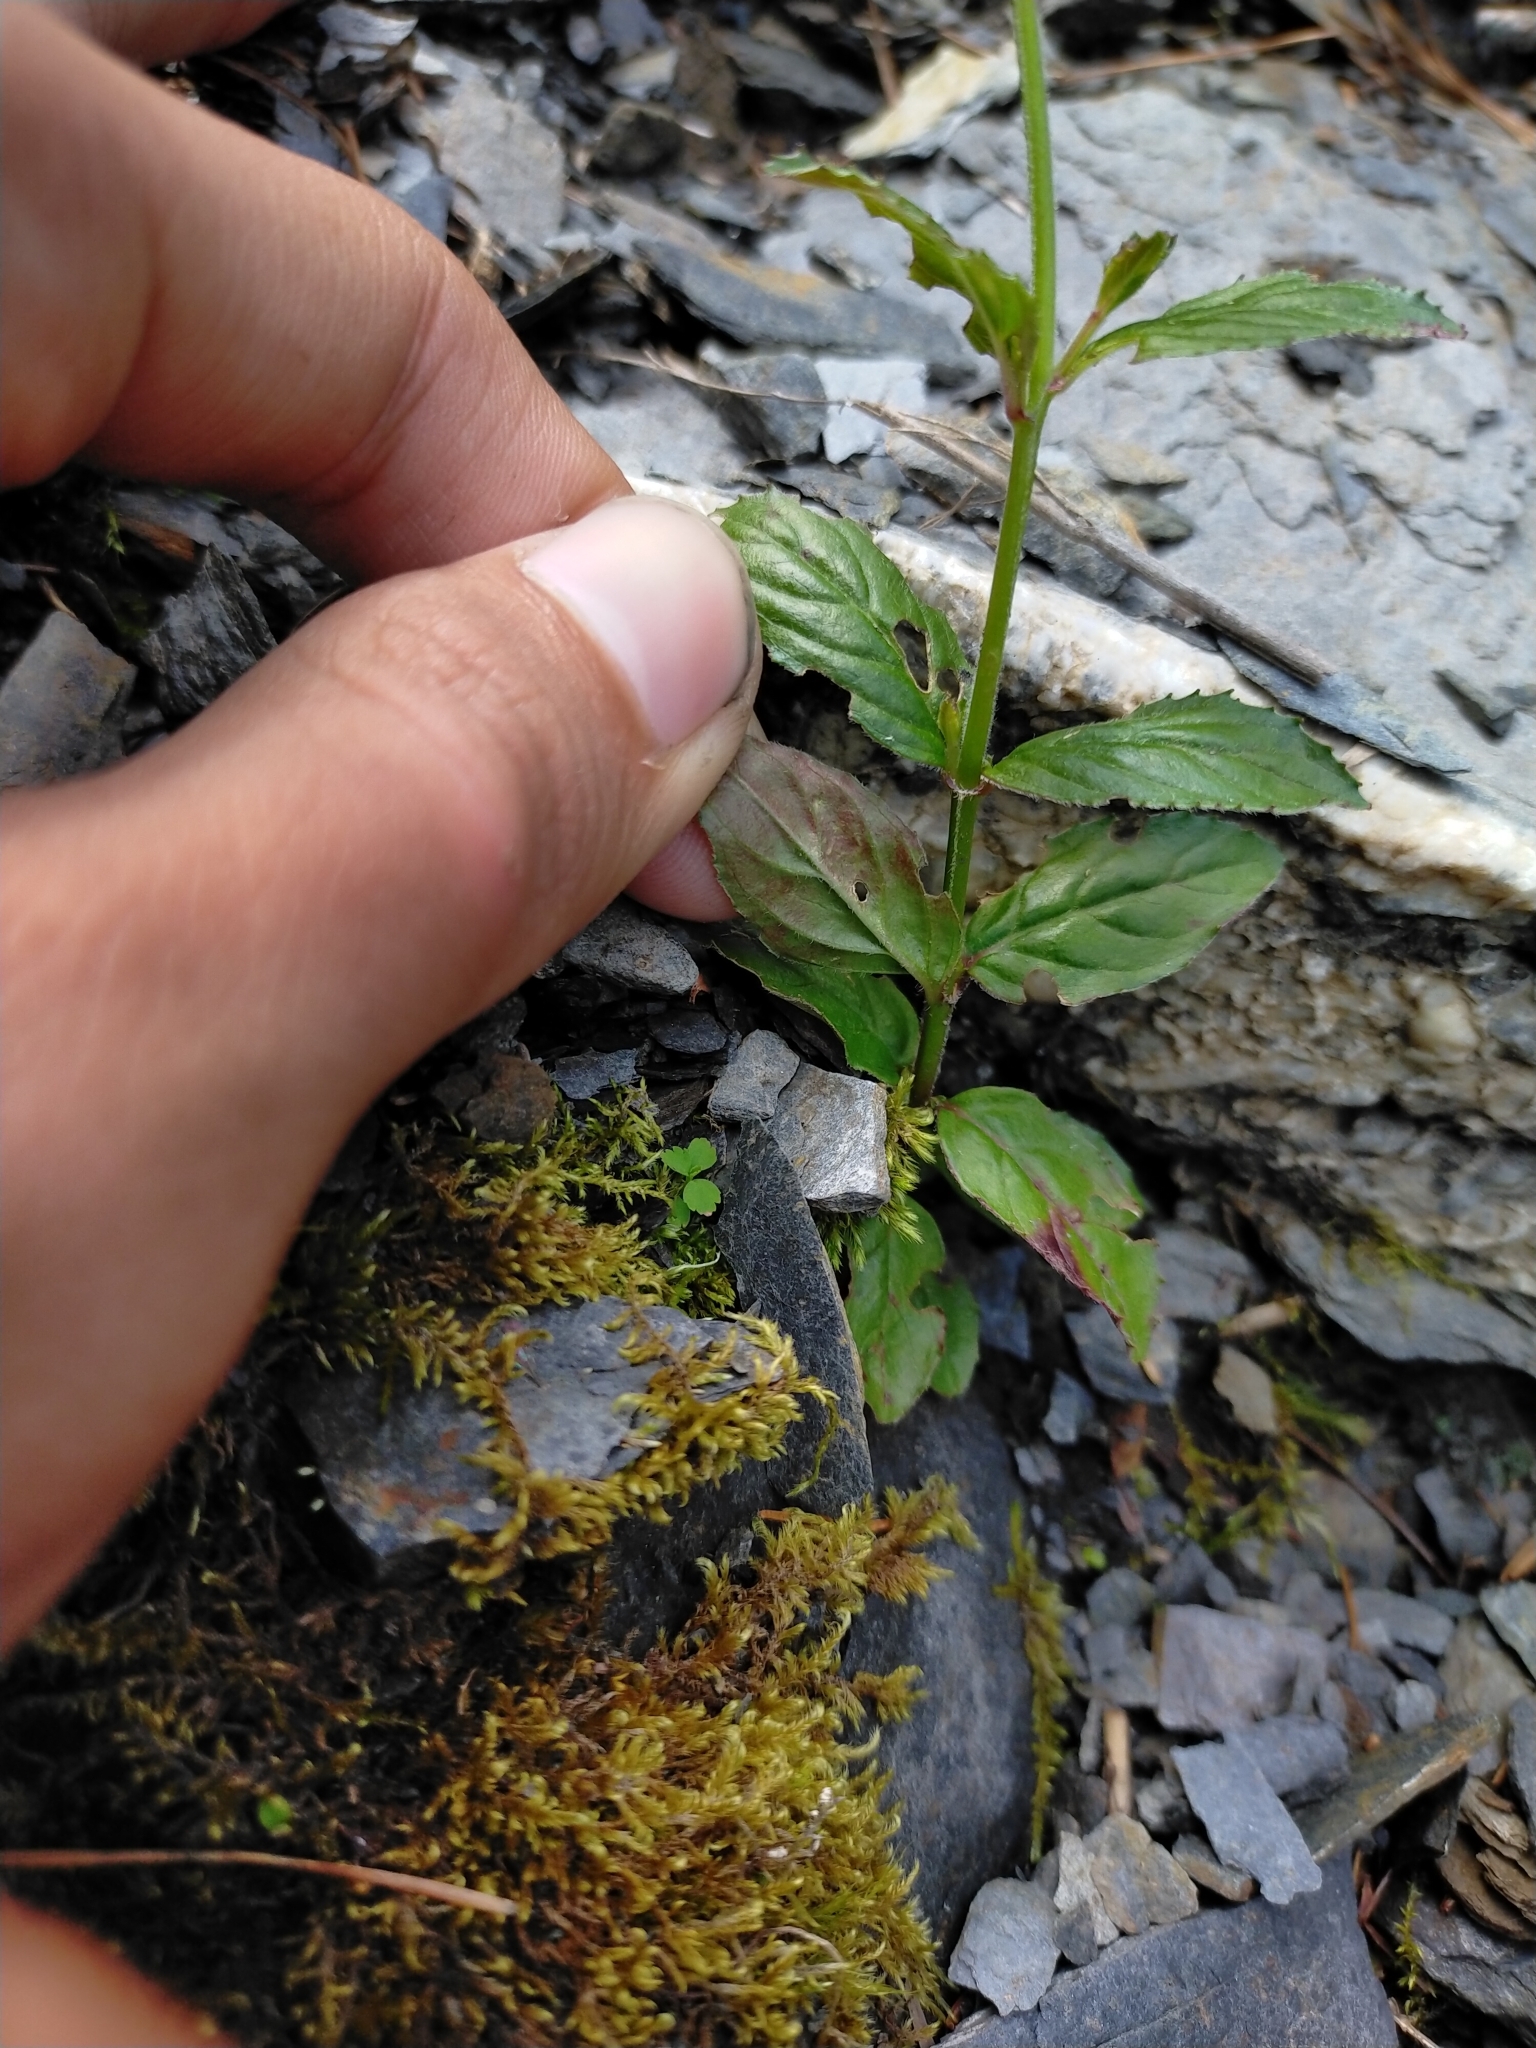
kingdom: Plantae
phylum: Tracheophyta
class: Magnoliopsida
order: Myrtales
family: Onagraceae
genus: Epilobium
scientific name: Epilobium amurense
